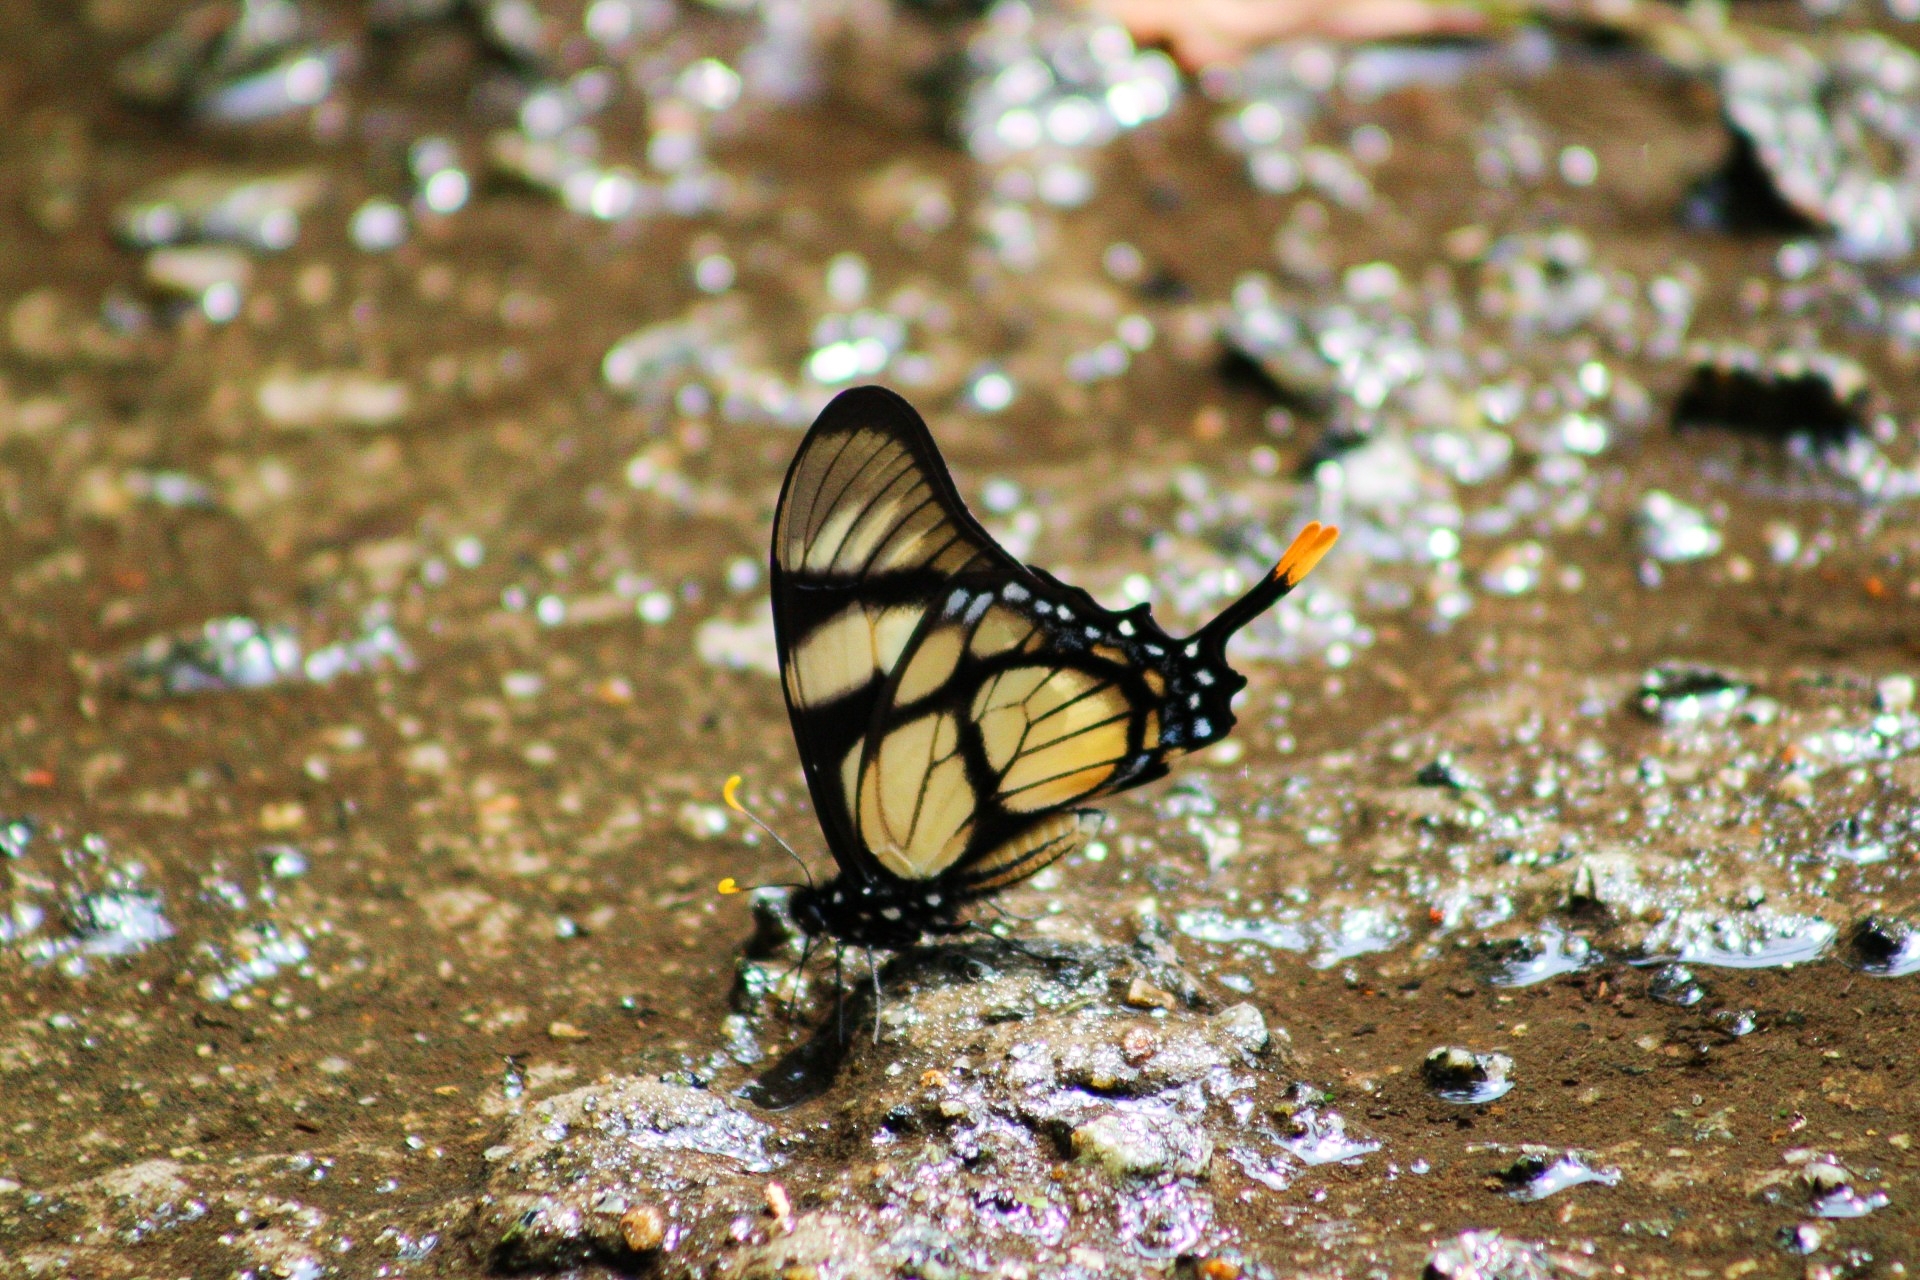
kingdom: Animalia
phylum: Arthropoda
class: Insecta
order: Lepidoptera
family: Papilionidae
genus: Eurytides
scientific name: Eurytides dolicaon
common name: Dolicaon kite swallowtail
